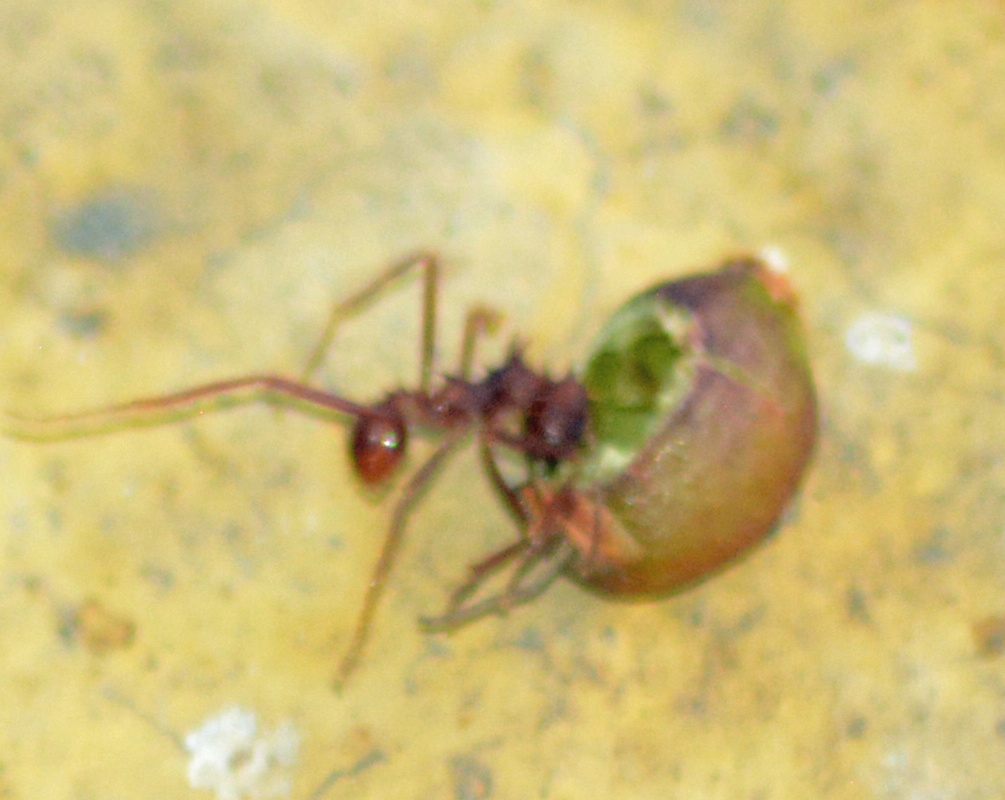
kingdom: Animalia
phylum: Arthropoda
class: Insecta
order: Hymenoptera
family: Formicidae
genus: Atta
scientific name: Atta mexicana
